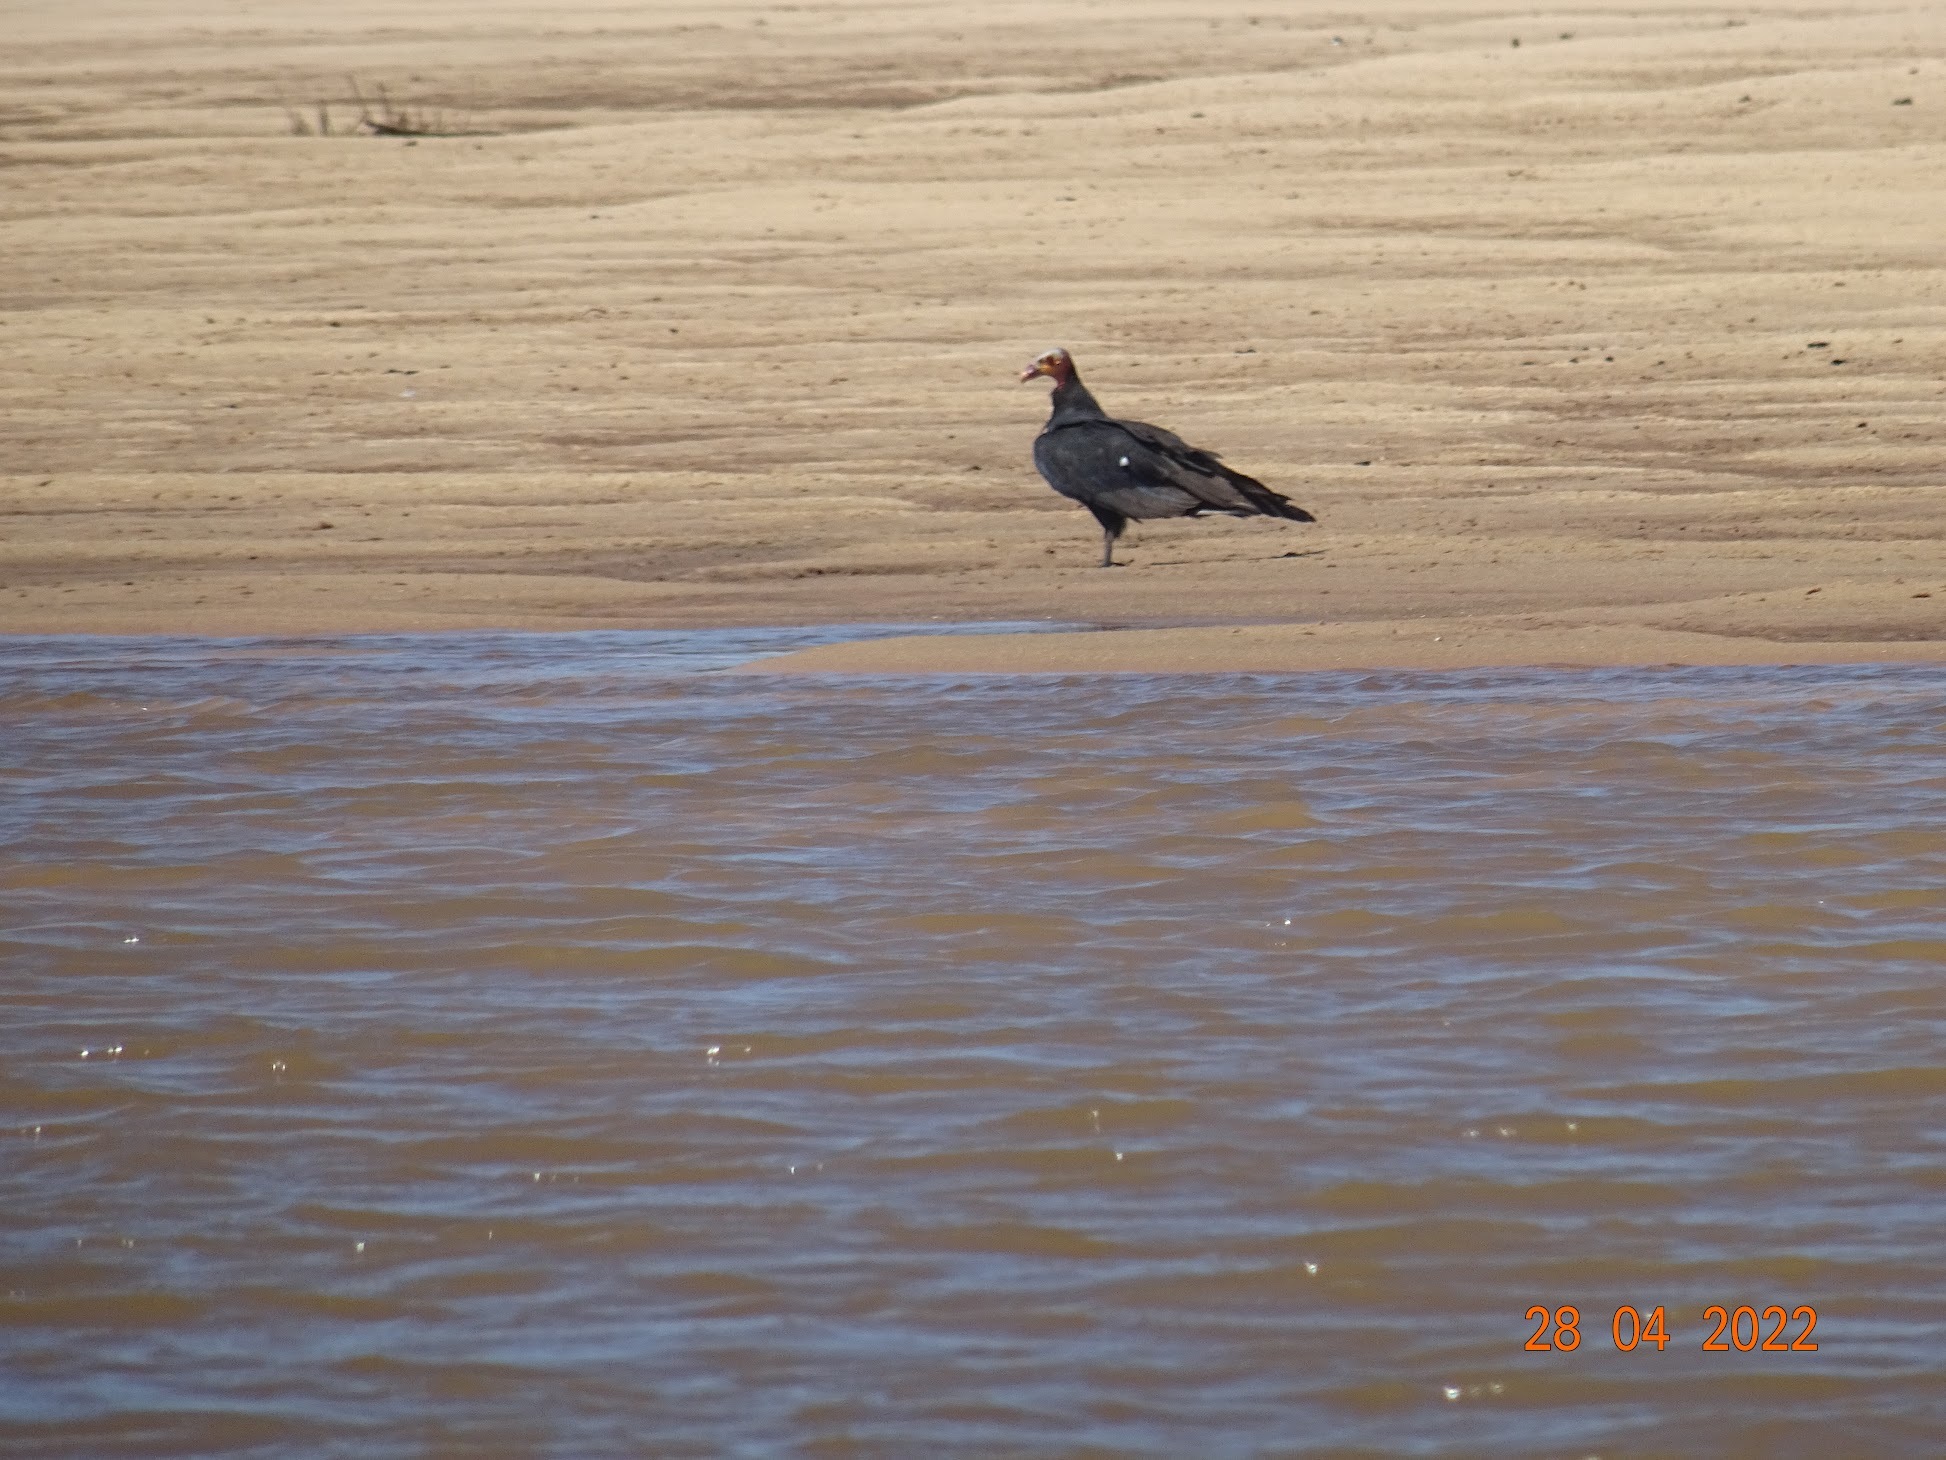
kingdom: Animalia
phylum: Chordata
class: Aves
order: Accipitriformes
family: Cathartidae
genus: Cathartes
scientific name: Cathartes burrovianus
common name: Lesser yellow-headed vulture
